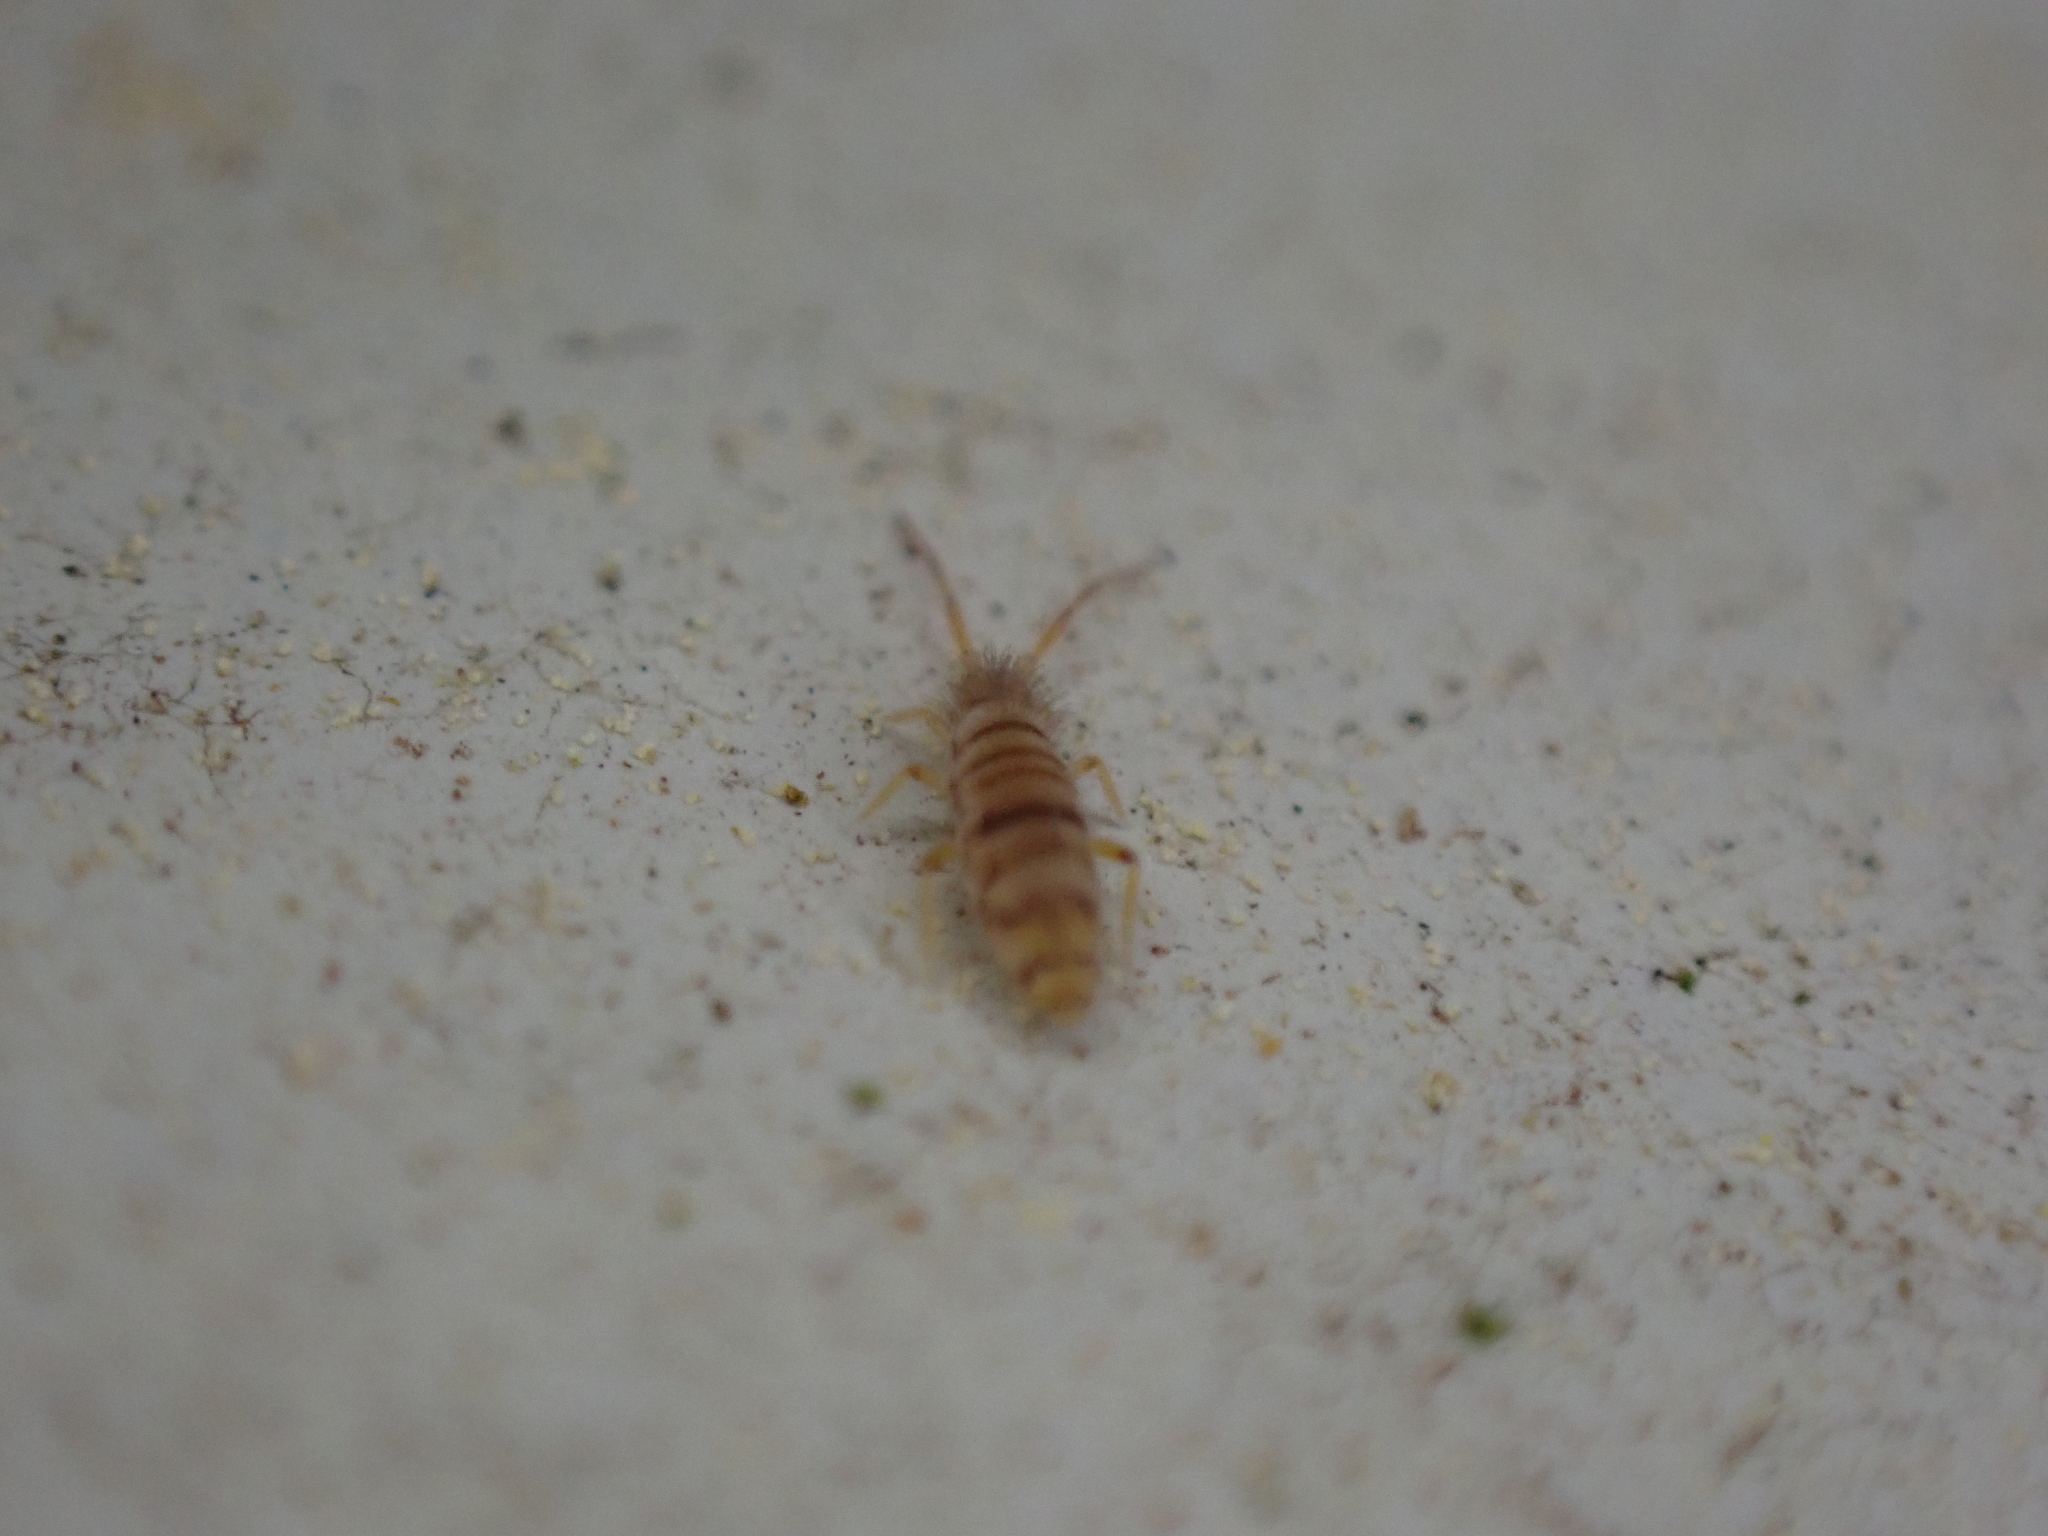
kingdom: Animalia
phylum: Arthropoda
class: Collembola
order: Entomobryomorpha
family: Entomobryidae
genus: Entomobrya
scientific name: Entomobrya atrocincta
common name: Springtail
